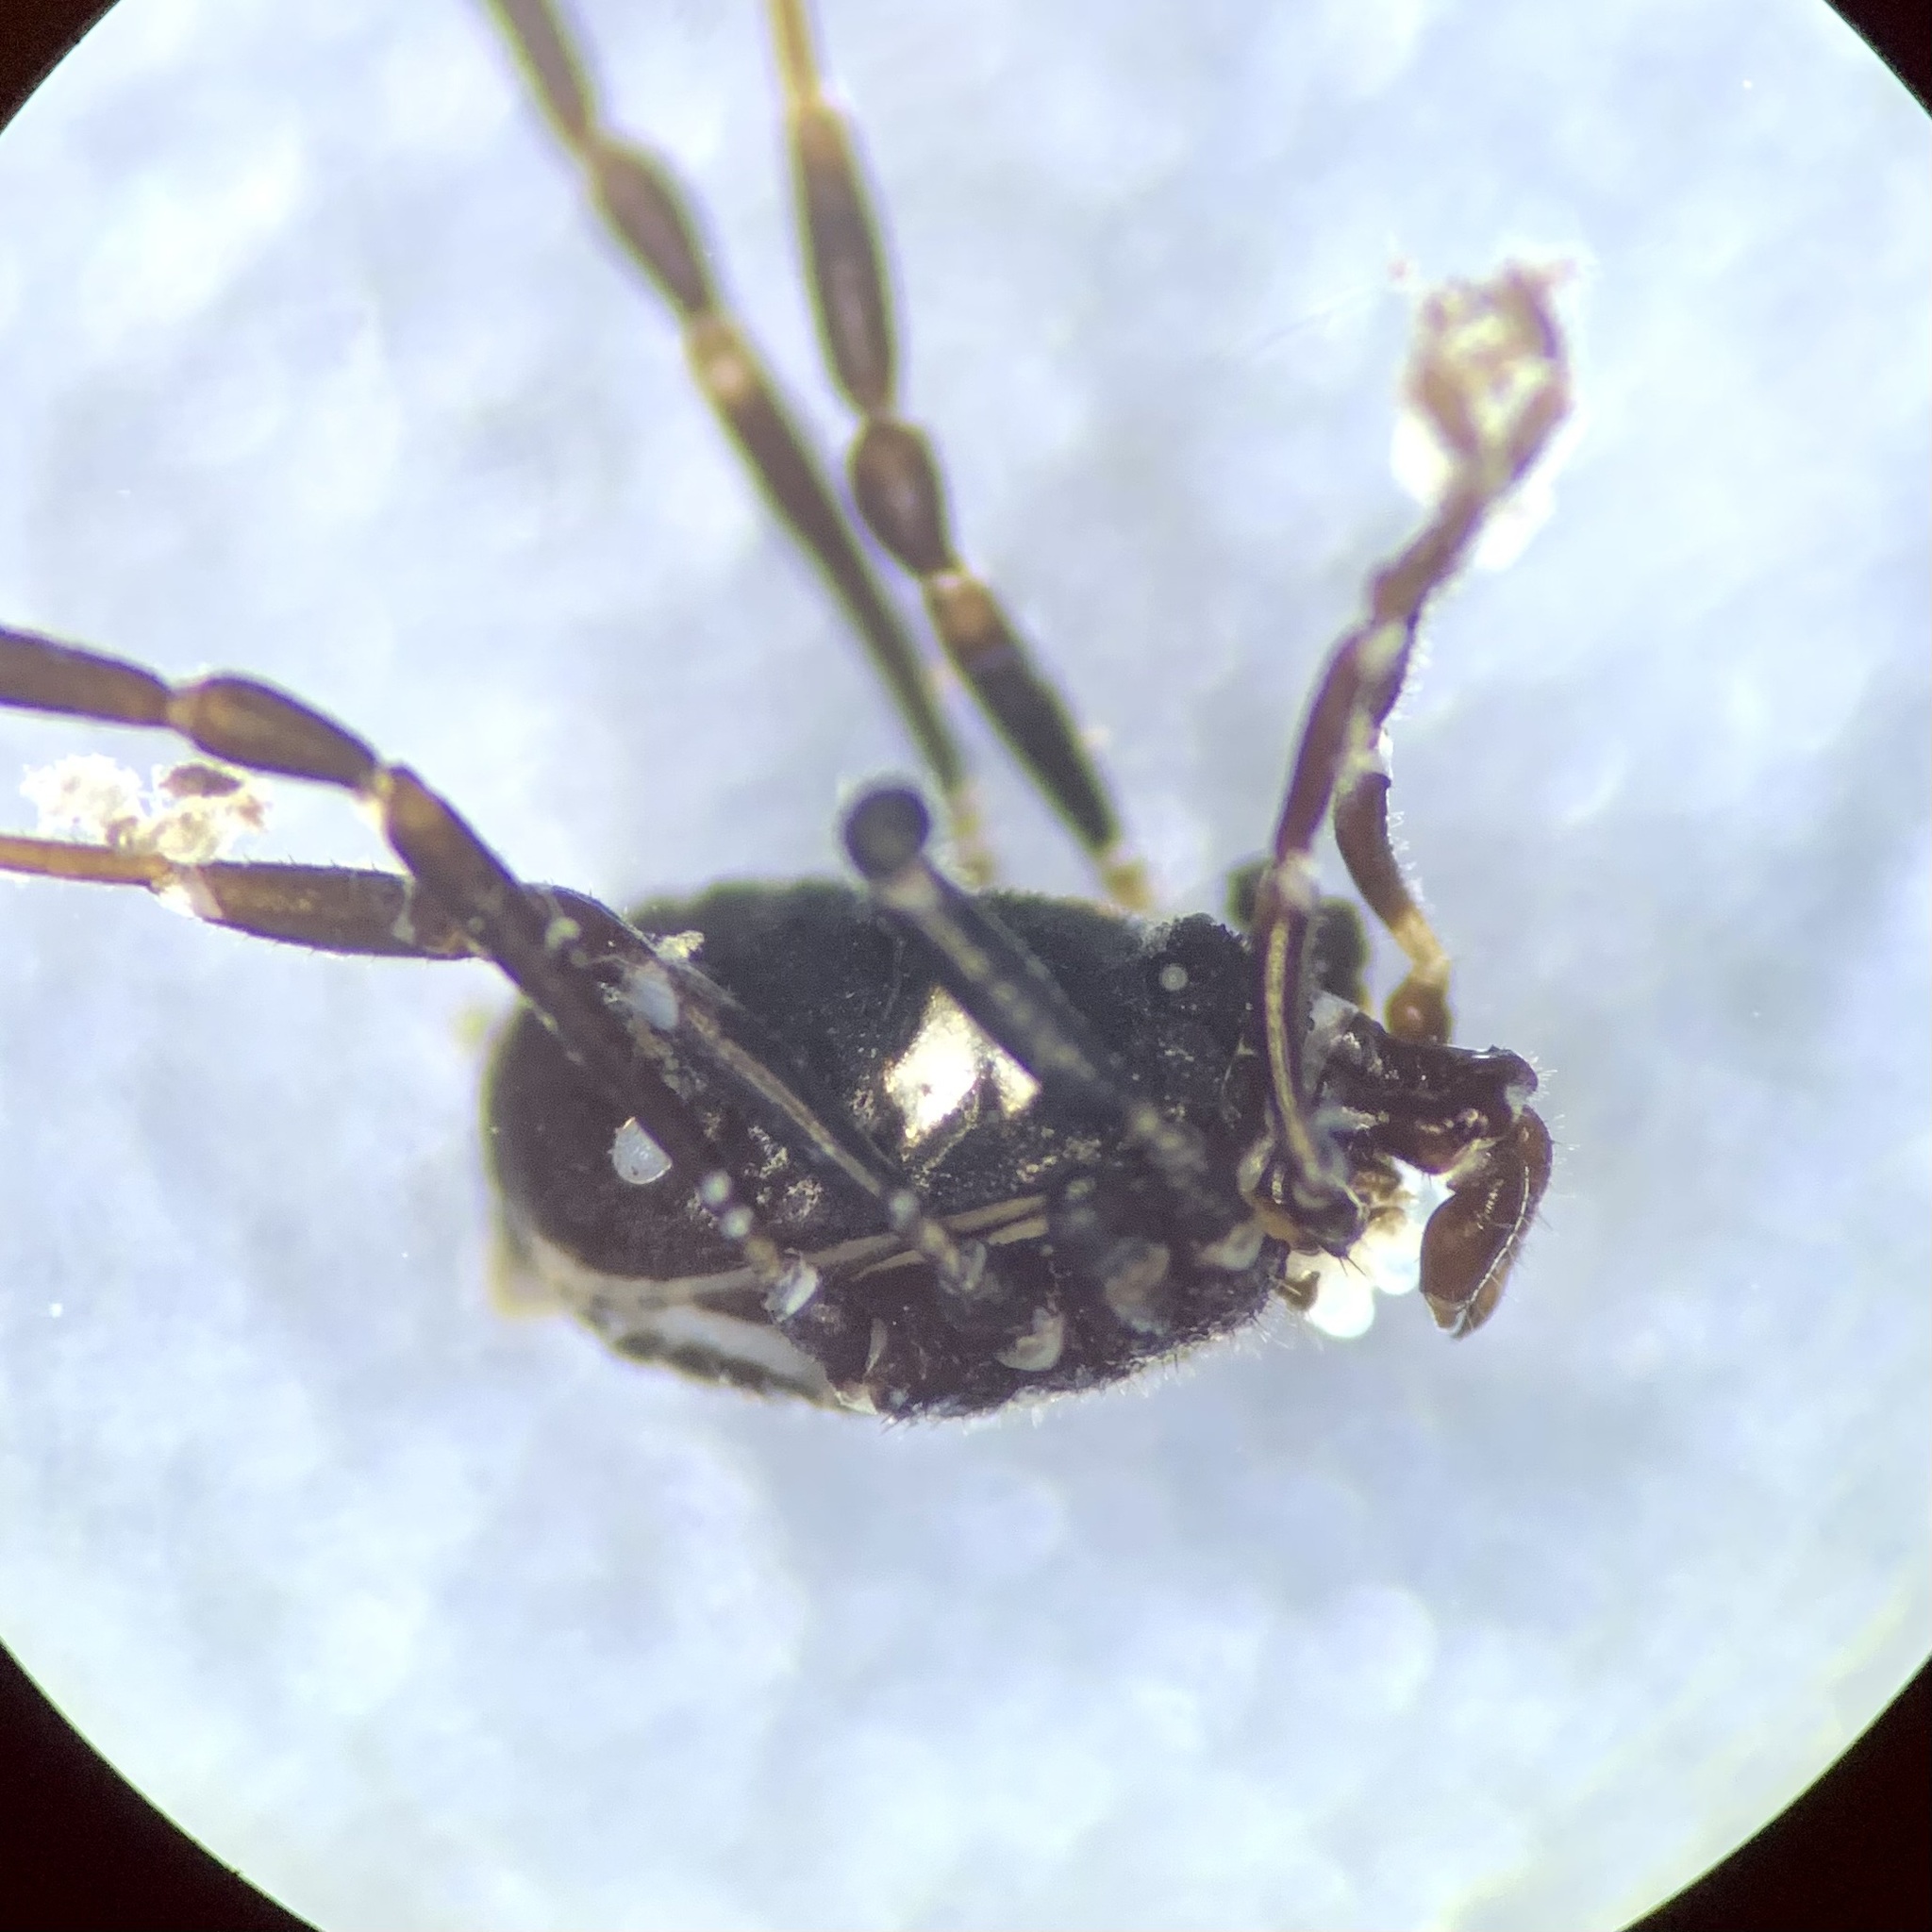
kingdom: Animalia
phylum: Arthropoda
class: Arachnida
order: Opiliones
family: Nemastomatidae
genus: Nemastoma
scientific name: Nemastoma bimaculatum
